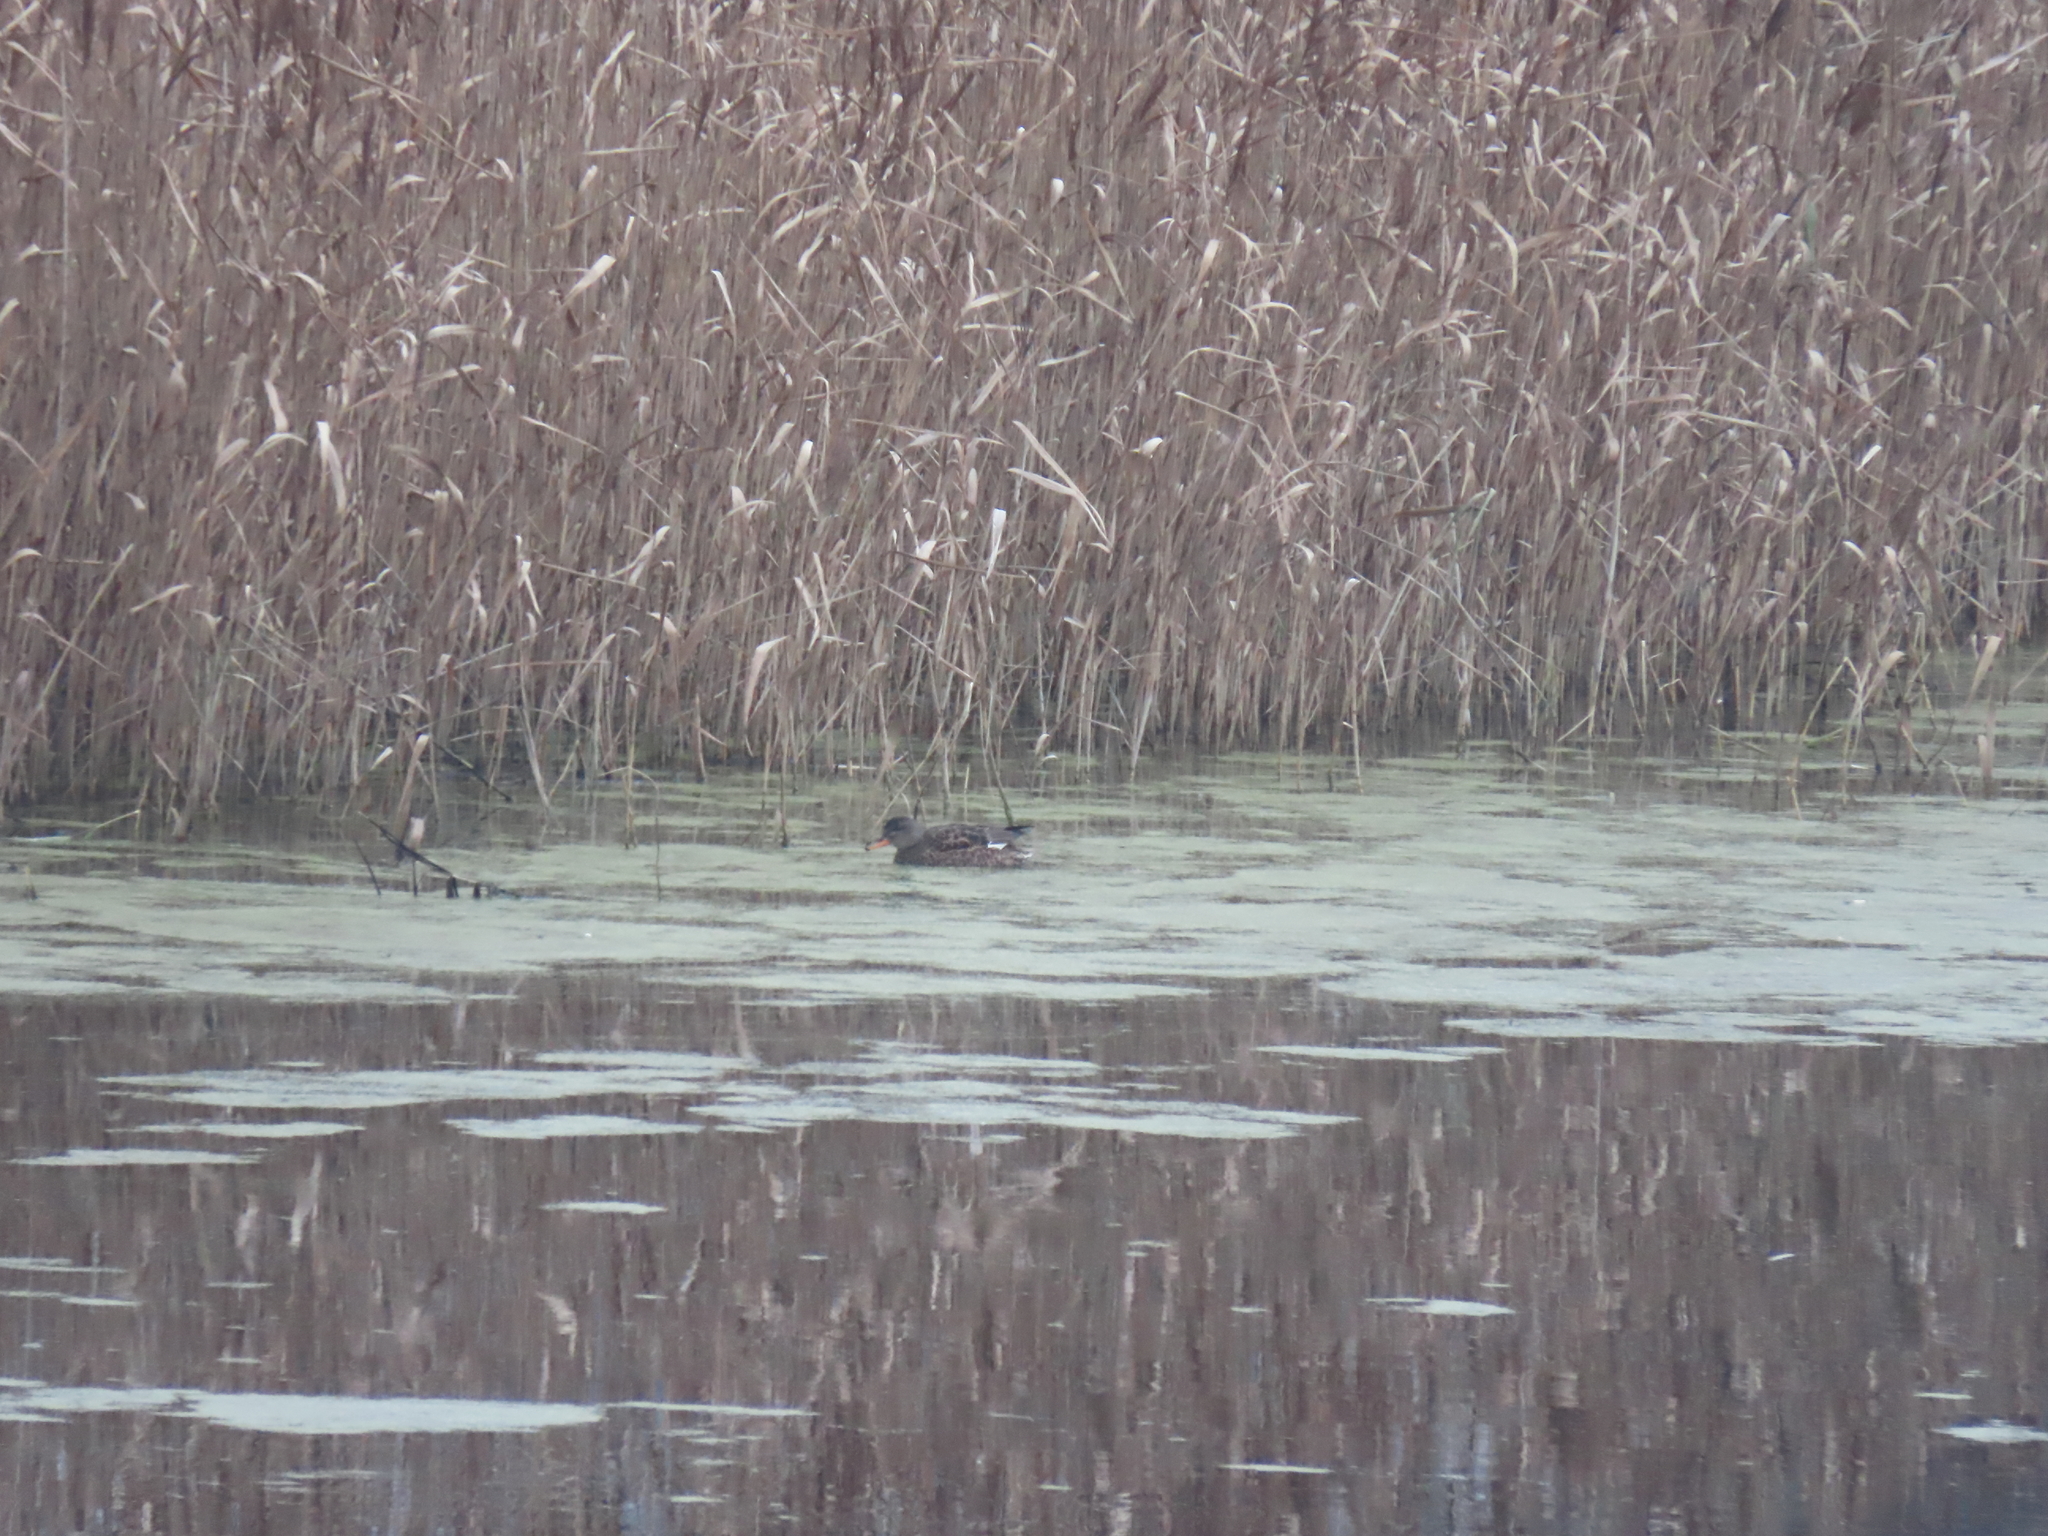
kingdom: Animalia
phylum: Chordata
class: Aves
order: Anseriformes
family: Anatidae
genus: Mareca
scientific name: Mareca strepera
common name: Gadwall
